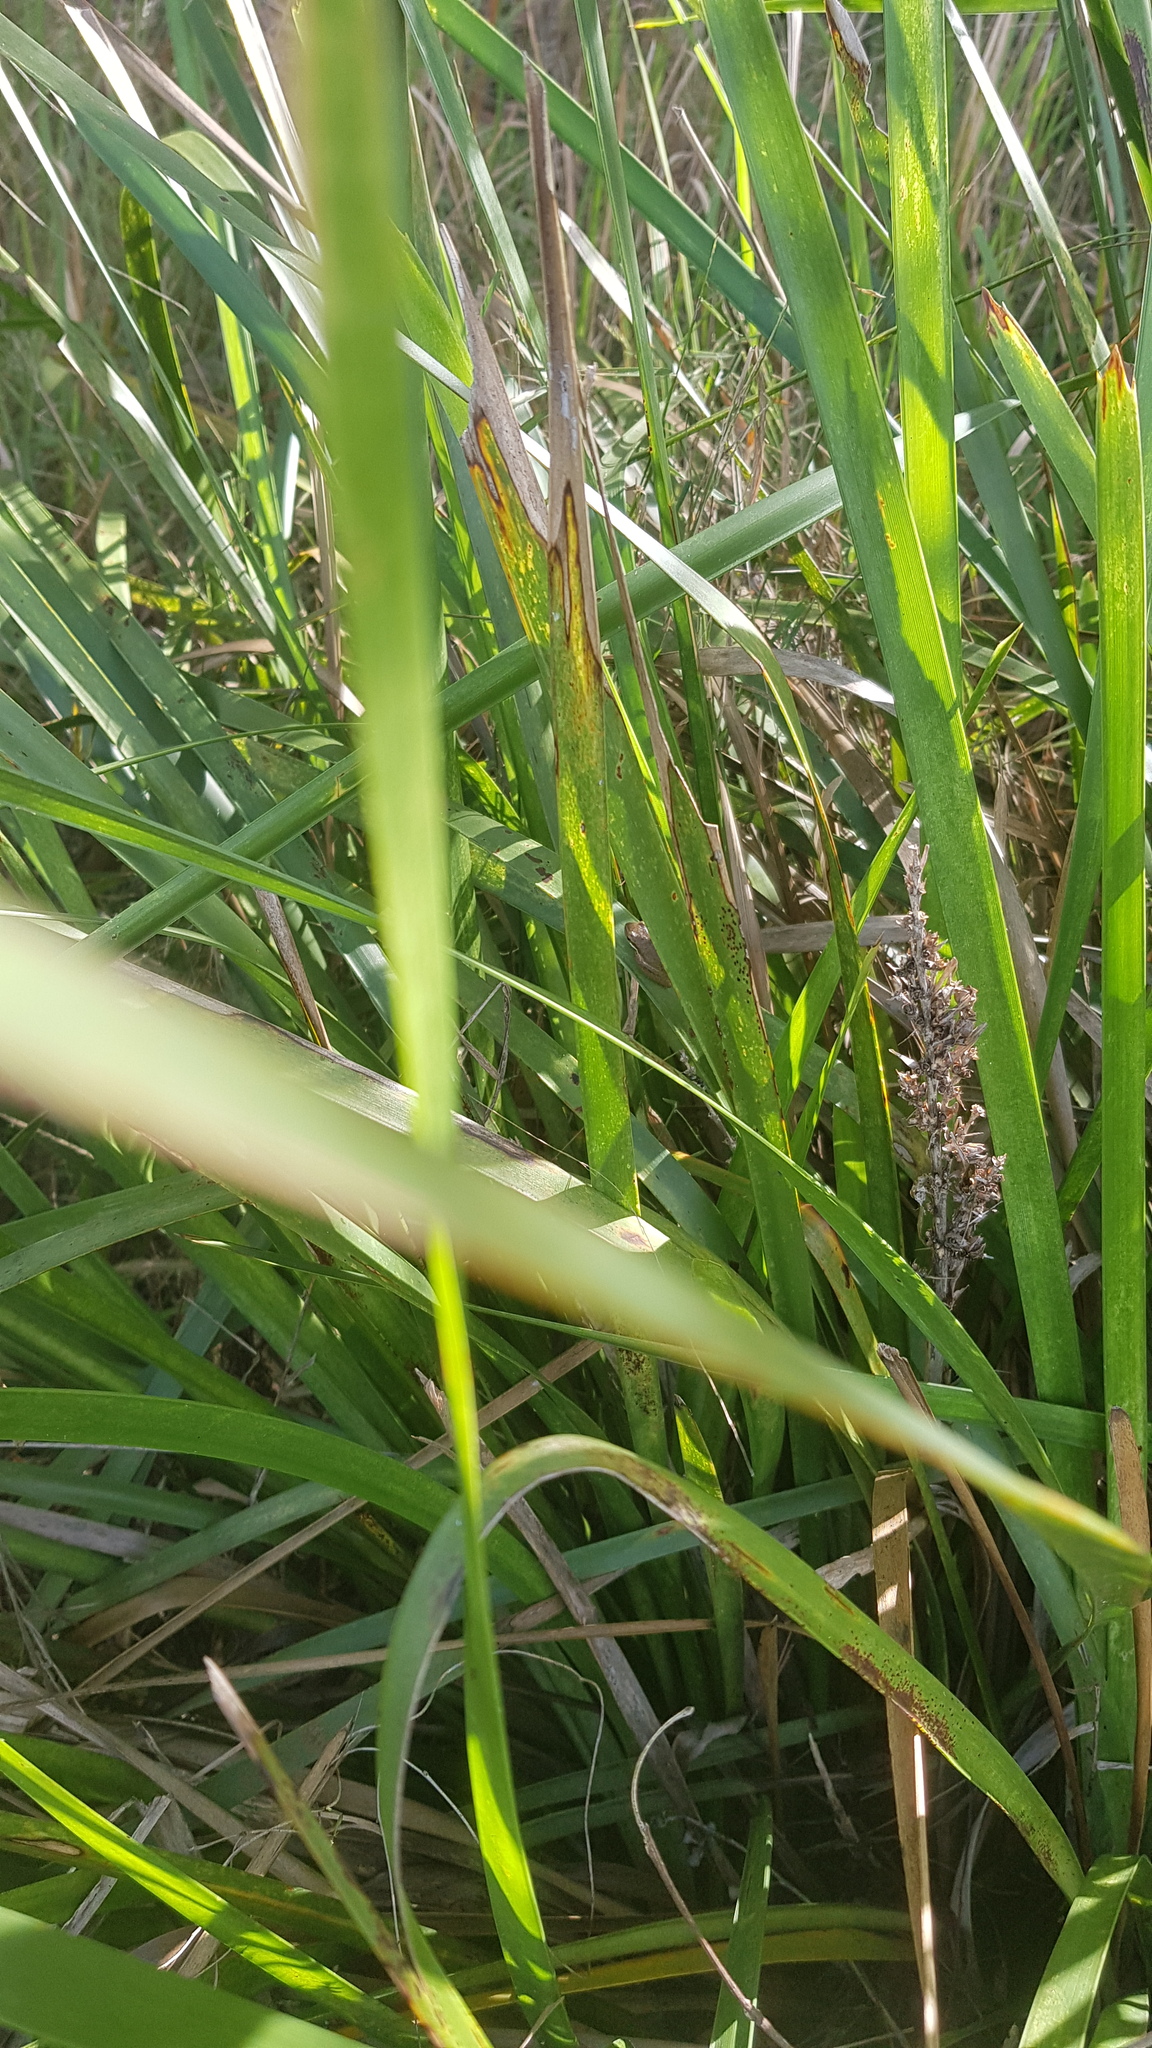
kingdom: Animalia
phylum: Chordata
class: Amphibia
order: Anura
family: Pelodryadidae
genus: Litoria
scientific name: Litoria fallax
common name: Eastern dwarf treefrog
